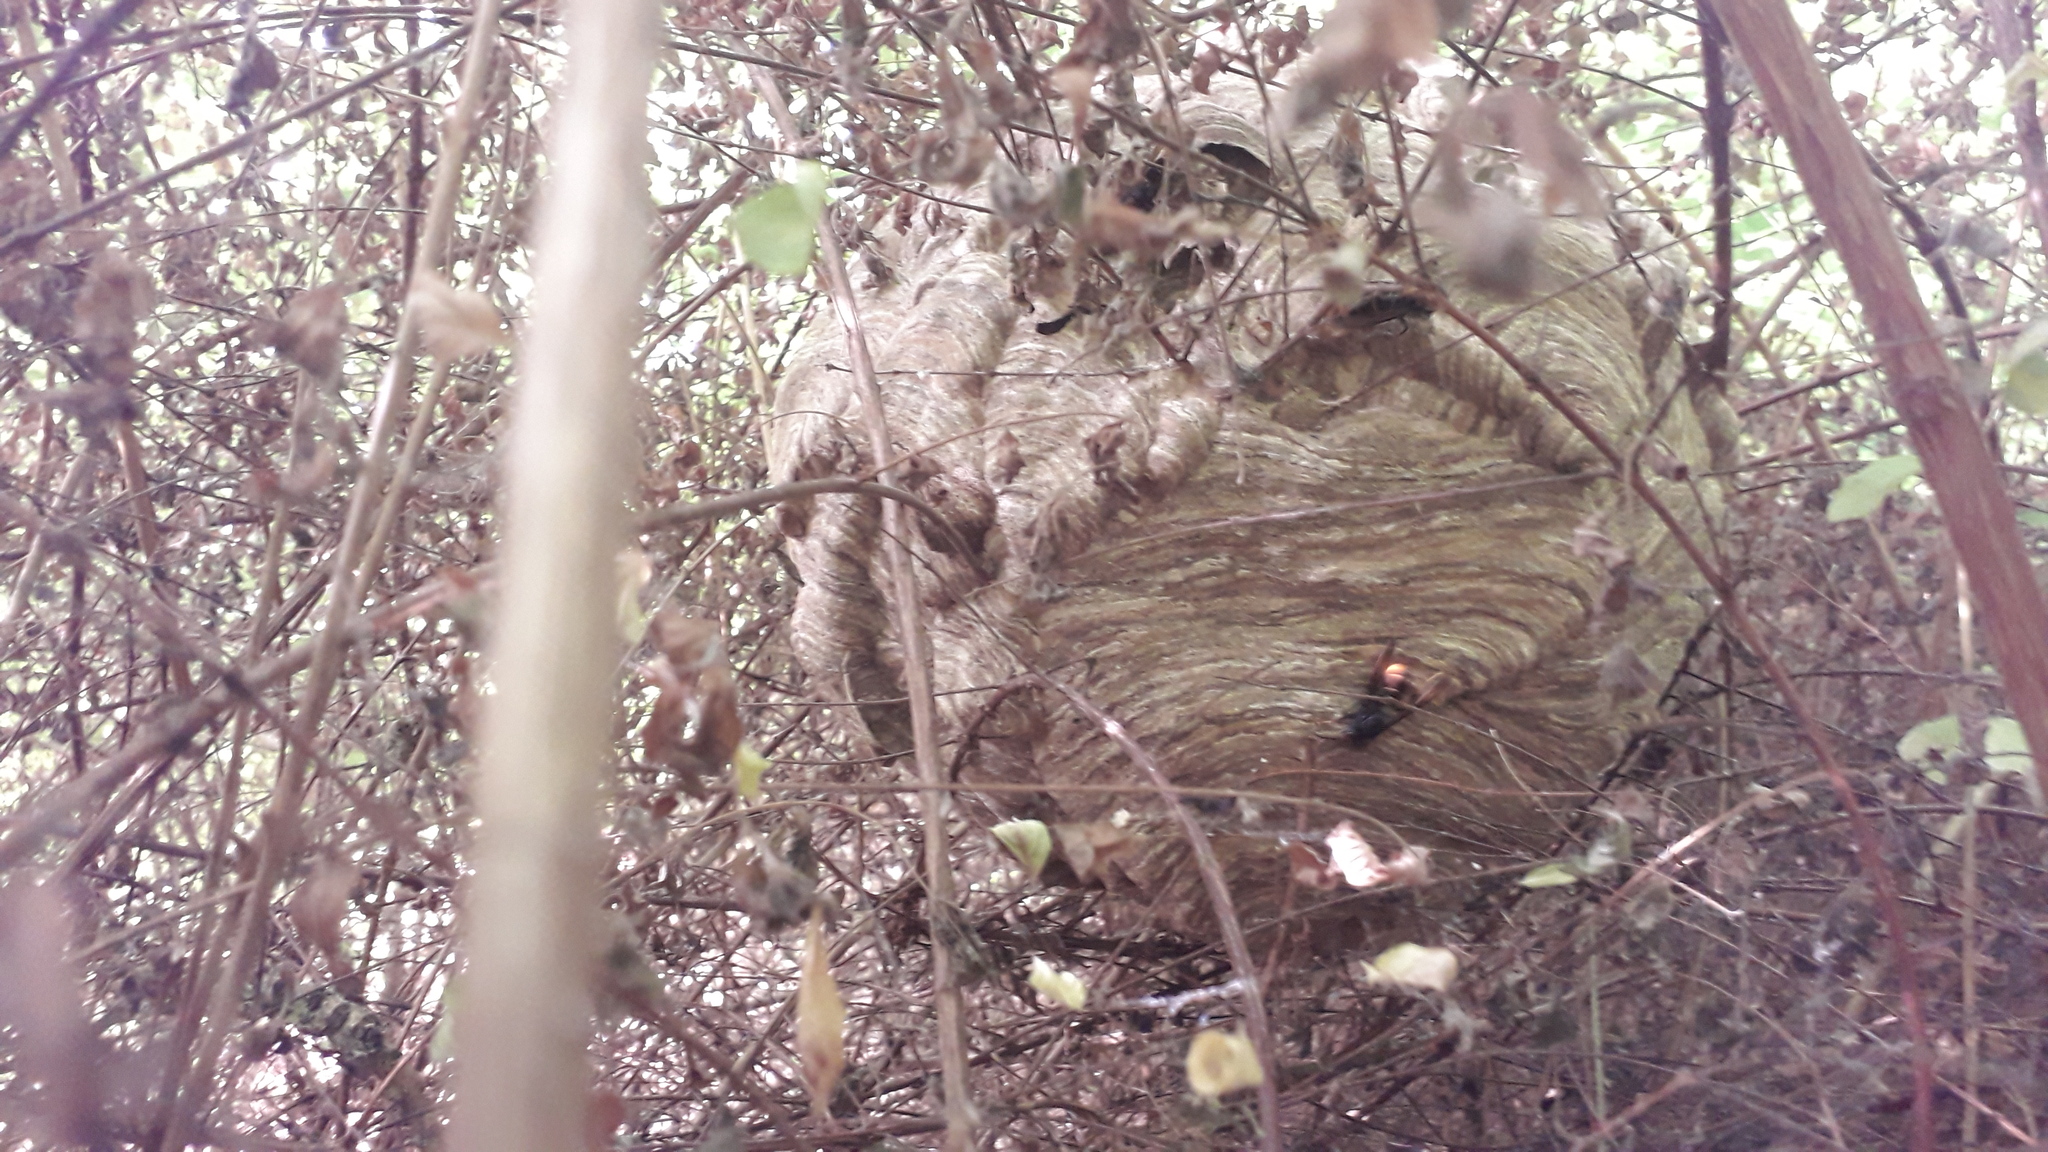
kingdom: Animalia
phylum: Arthropoda
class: Insecta
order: Hymenoptera
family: Vespidae
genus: Vespa
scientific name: Vespa velutina
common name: Asian hornet
